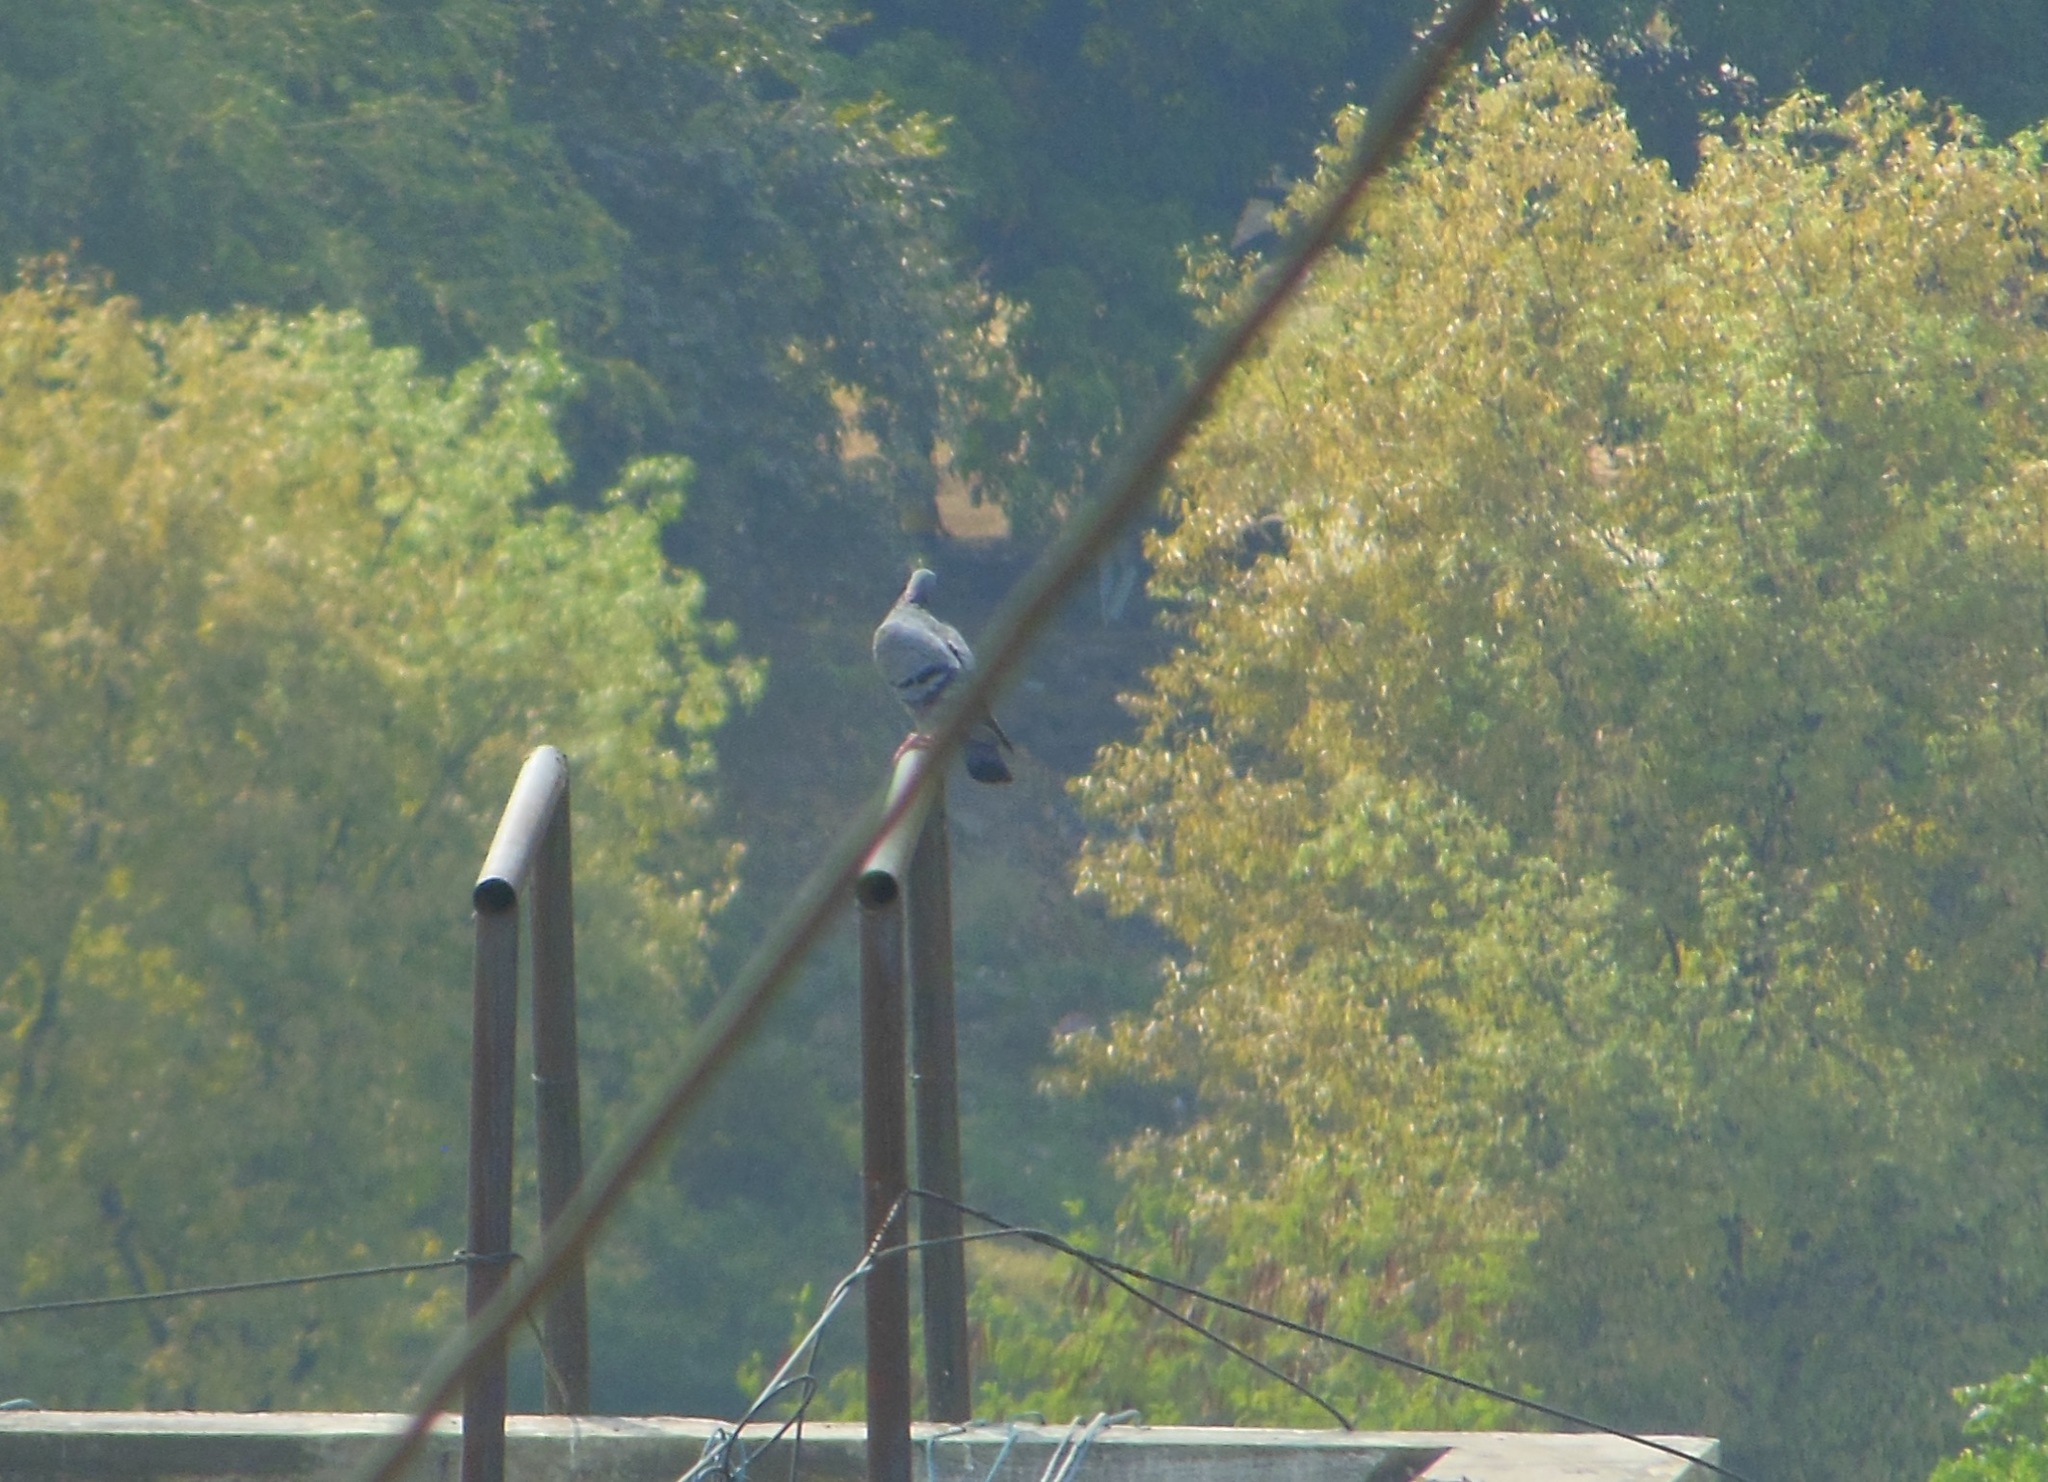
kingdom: Animalia
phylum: Chordata
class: Aves
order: Columbiformes
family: Columbidae
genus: Columba
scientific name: Columba livia
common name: Rock pigeon
